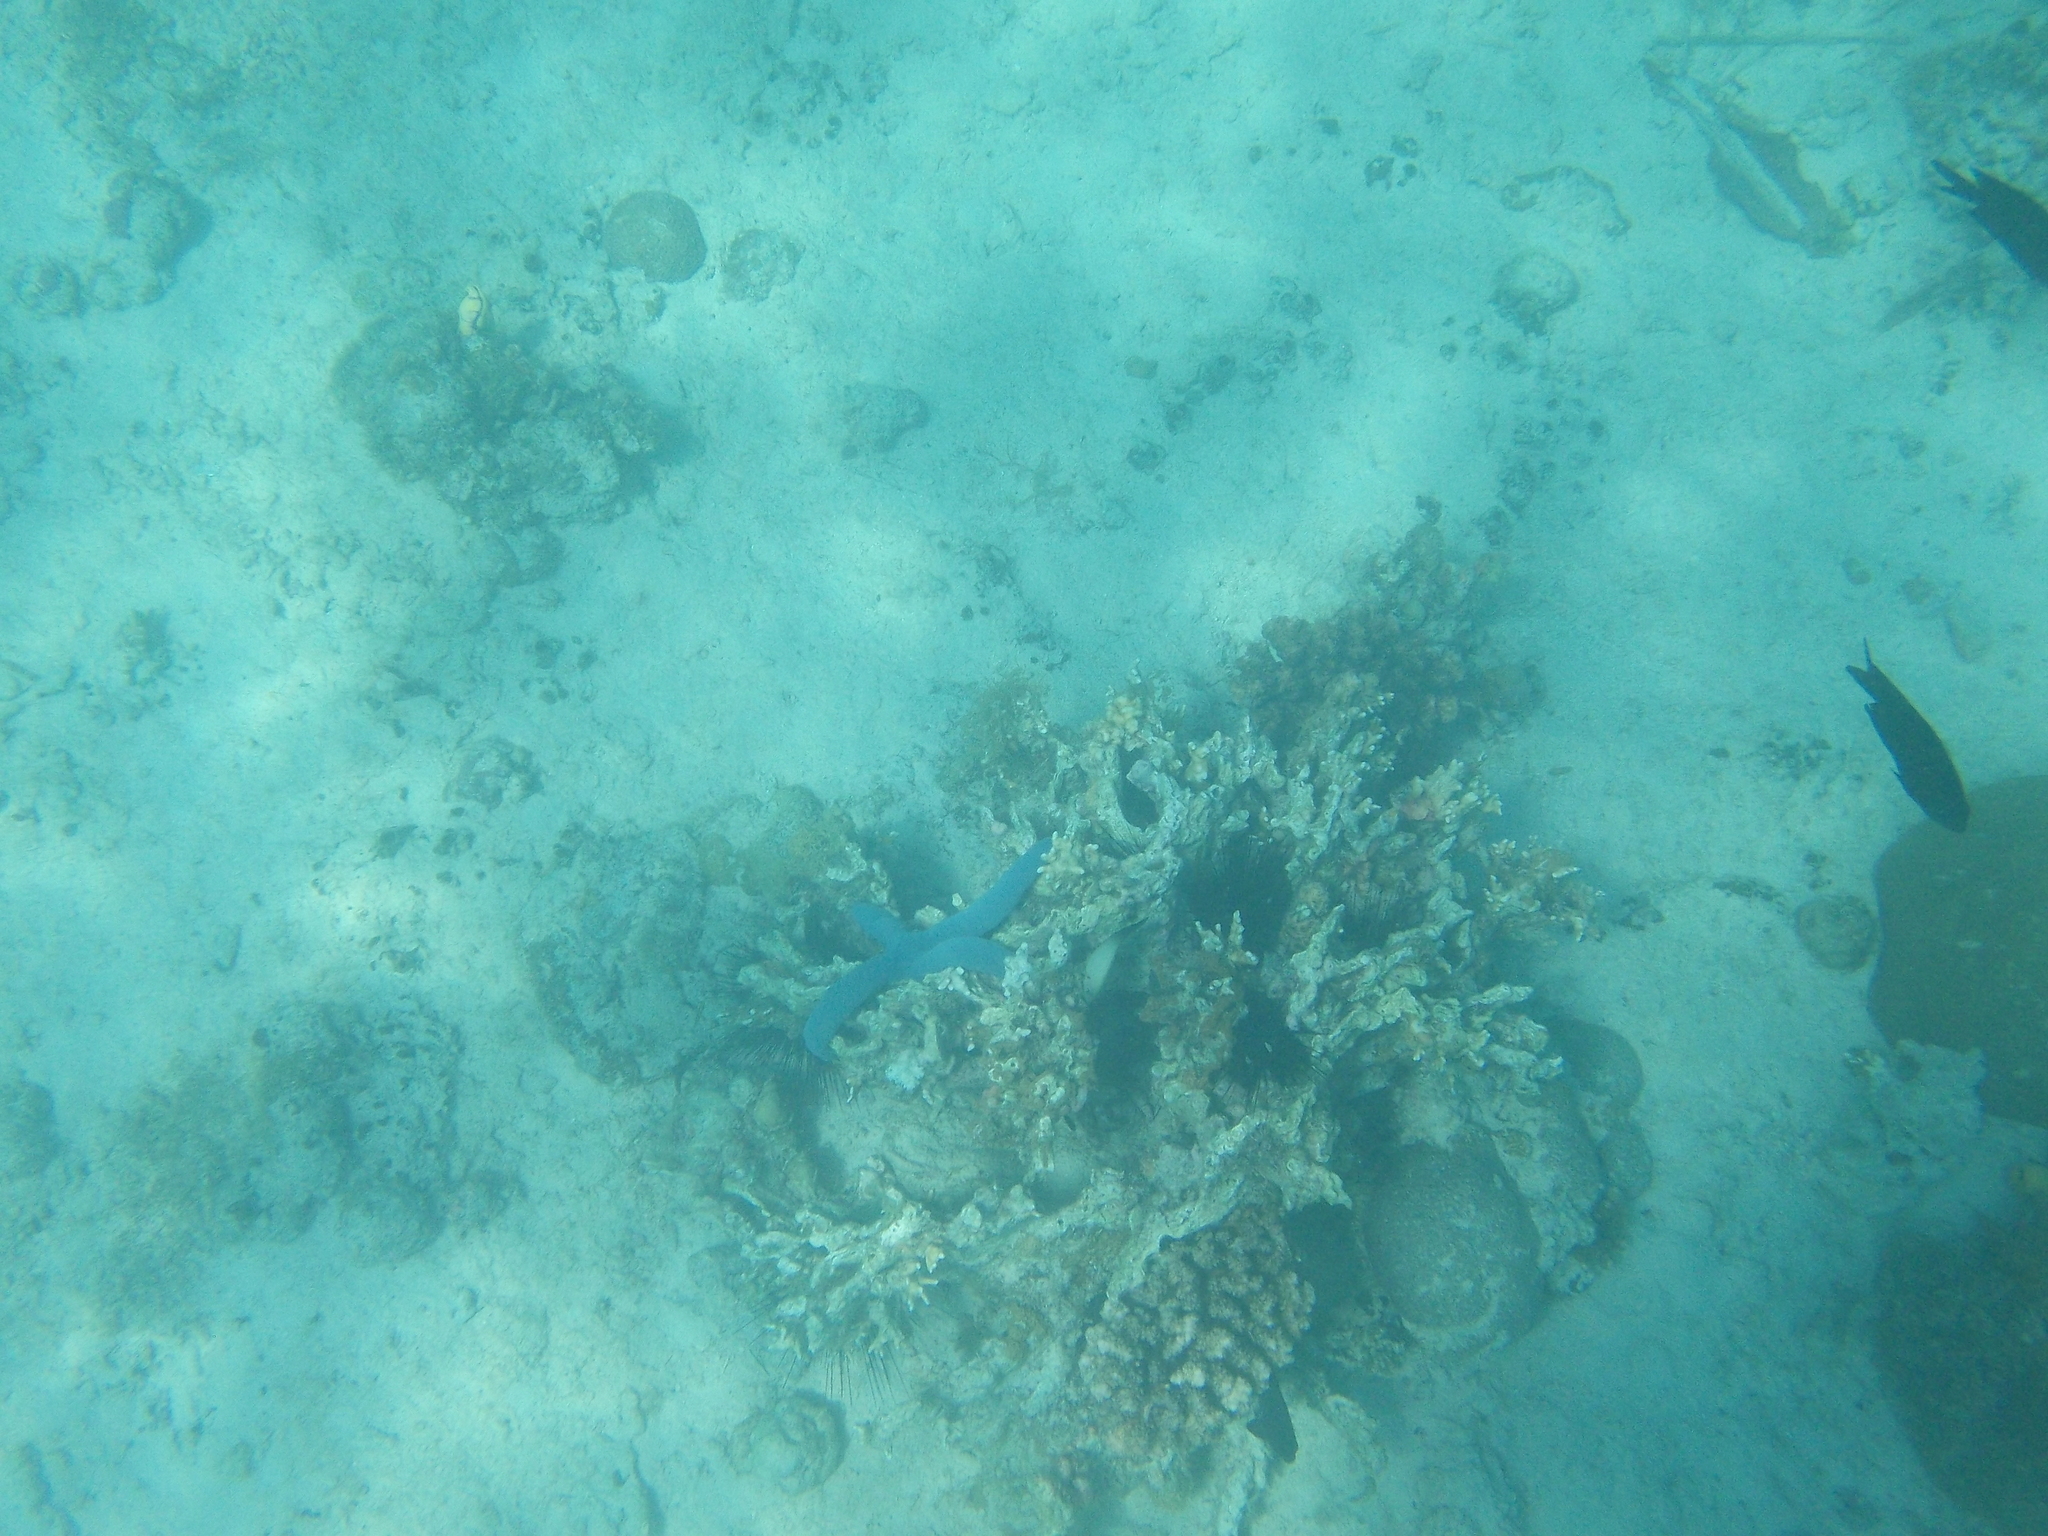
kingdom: Animalia
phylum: Echinodermata
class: Asteroidea
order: Valvatida
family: Ophidiasteridae
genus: Linckia
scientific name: Linckia laevigata
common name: Azure sea star
